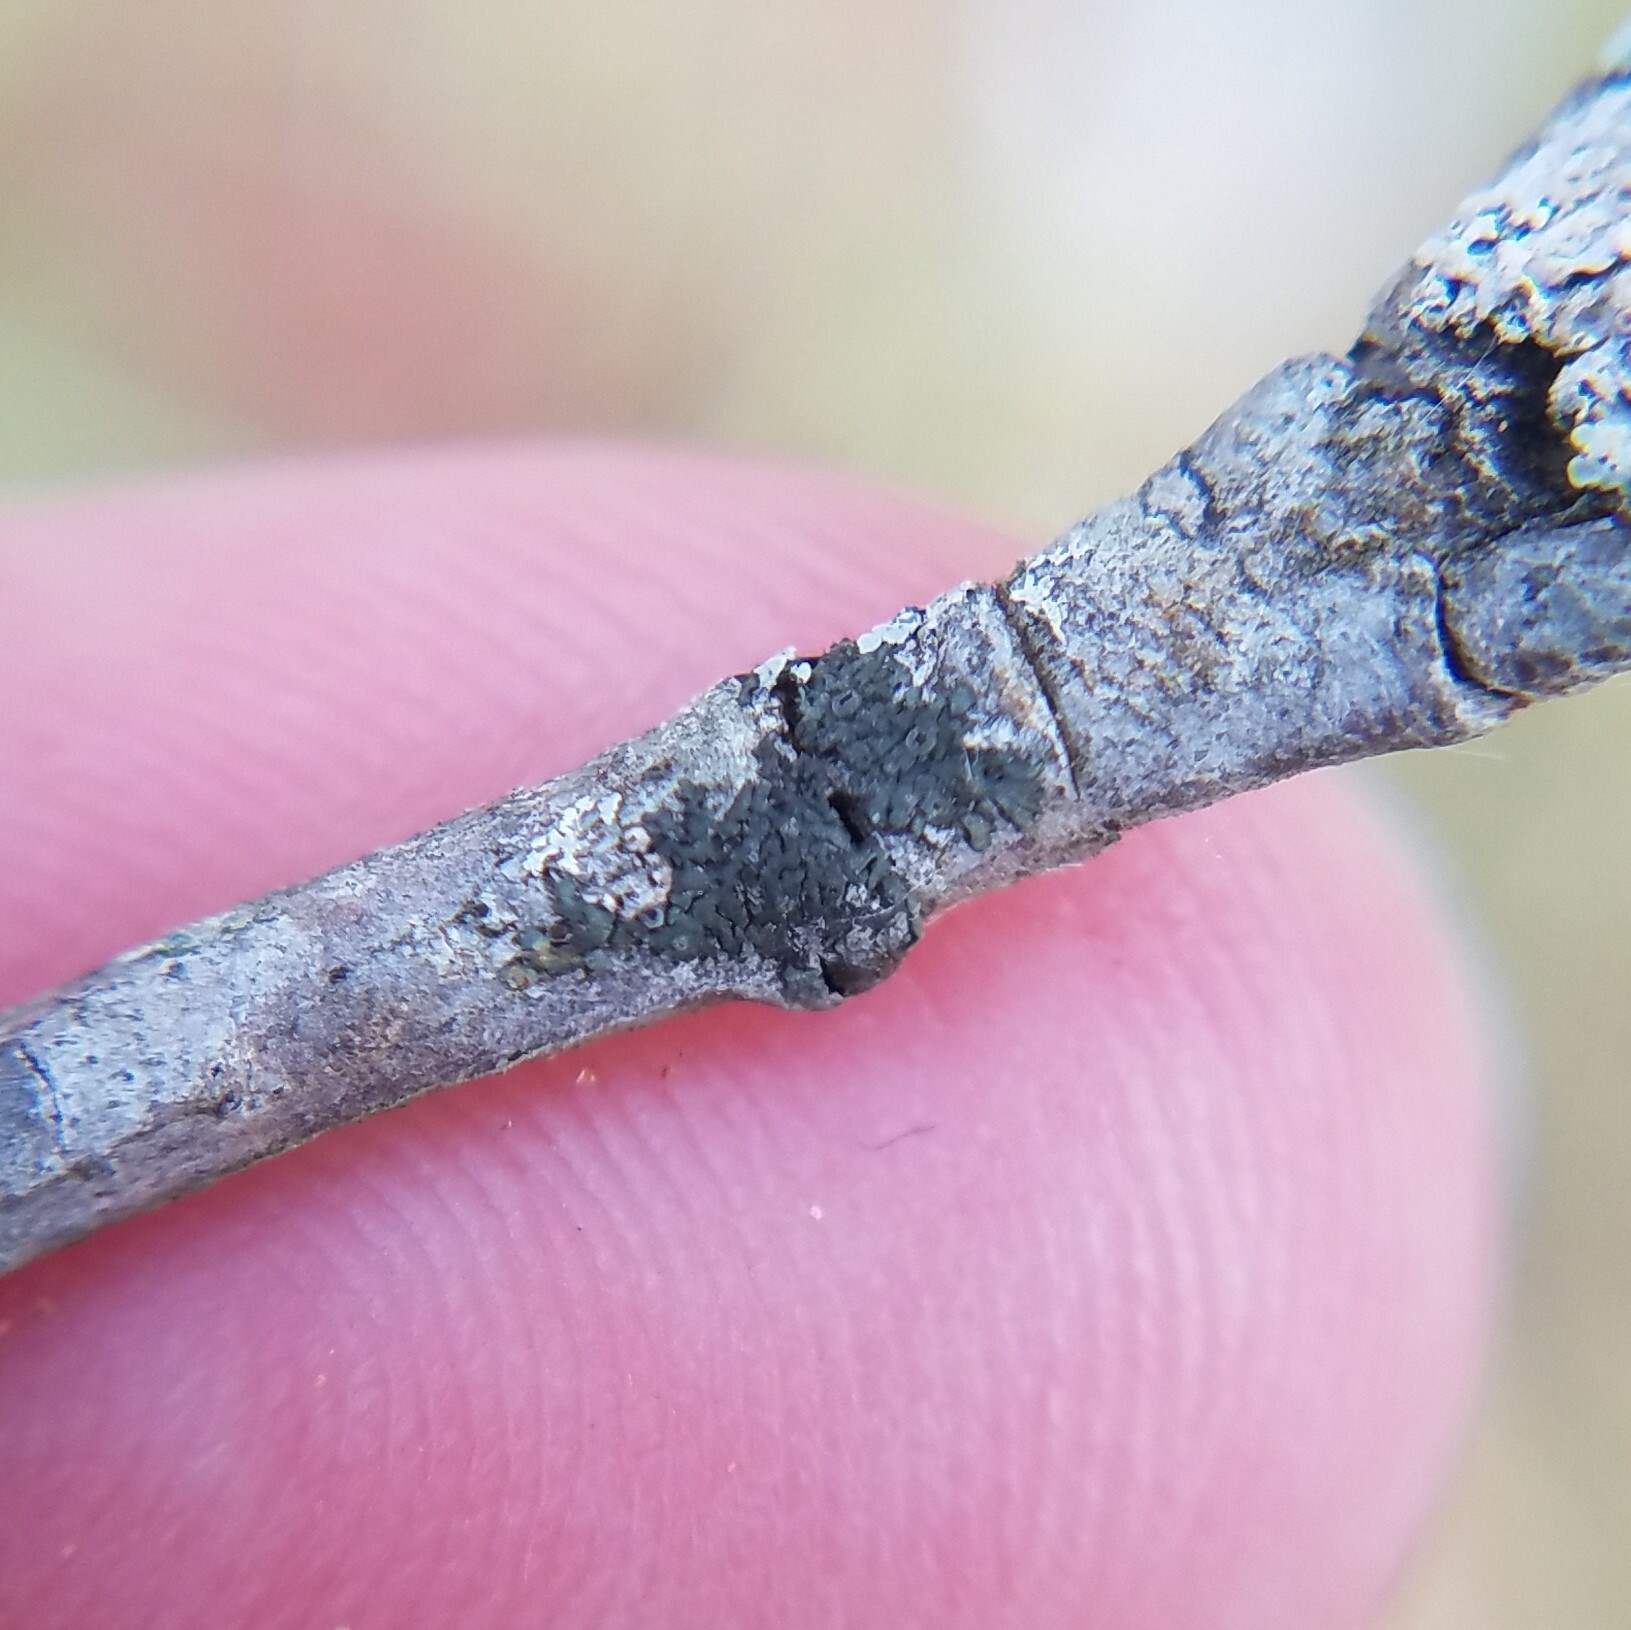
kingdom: Fungi
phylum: Ascomycota
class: Lecanoromycetes
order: Caliciales
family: Physciaceae
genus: Hyperphyscia
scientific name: Hyperphyscia syncolla
